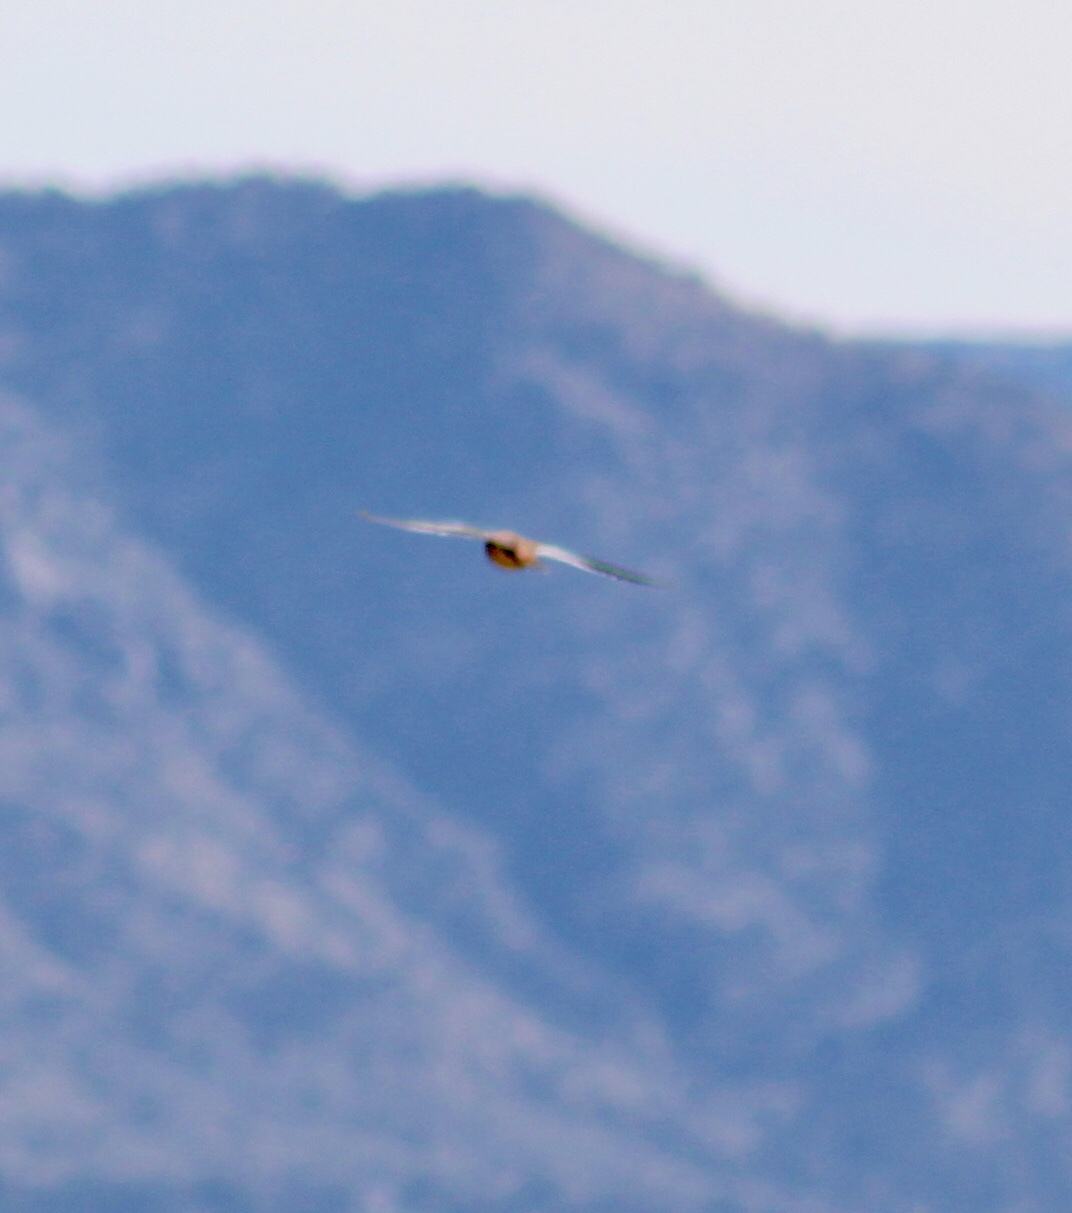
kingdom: Animalia
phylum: Chordata
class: Aves
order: Falconiformes
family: Falconidae
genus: Falco
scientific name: Falco sparverius
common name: American kestrel
